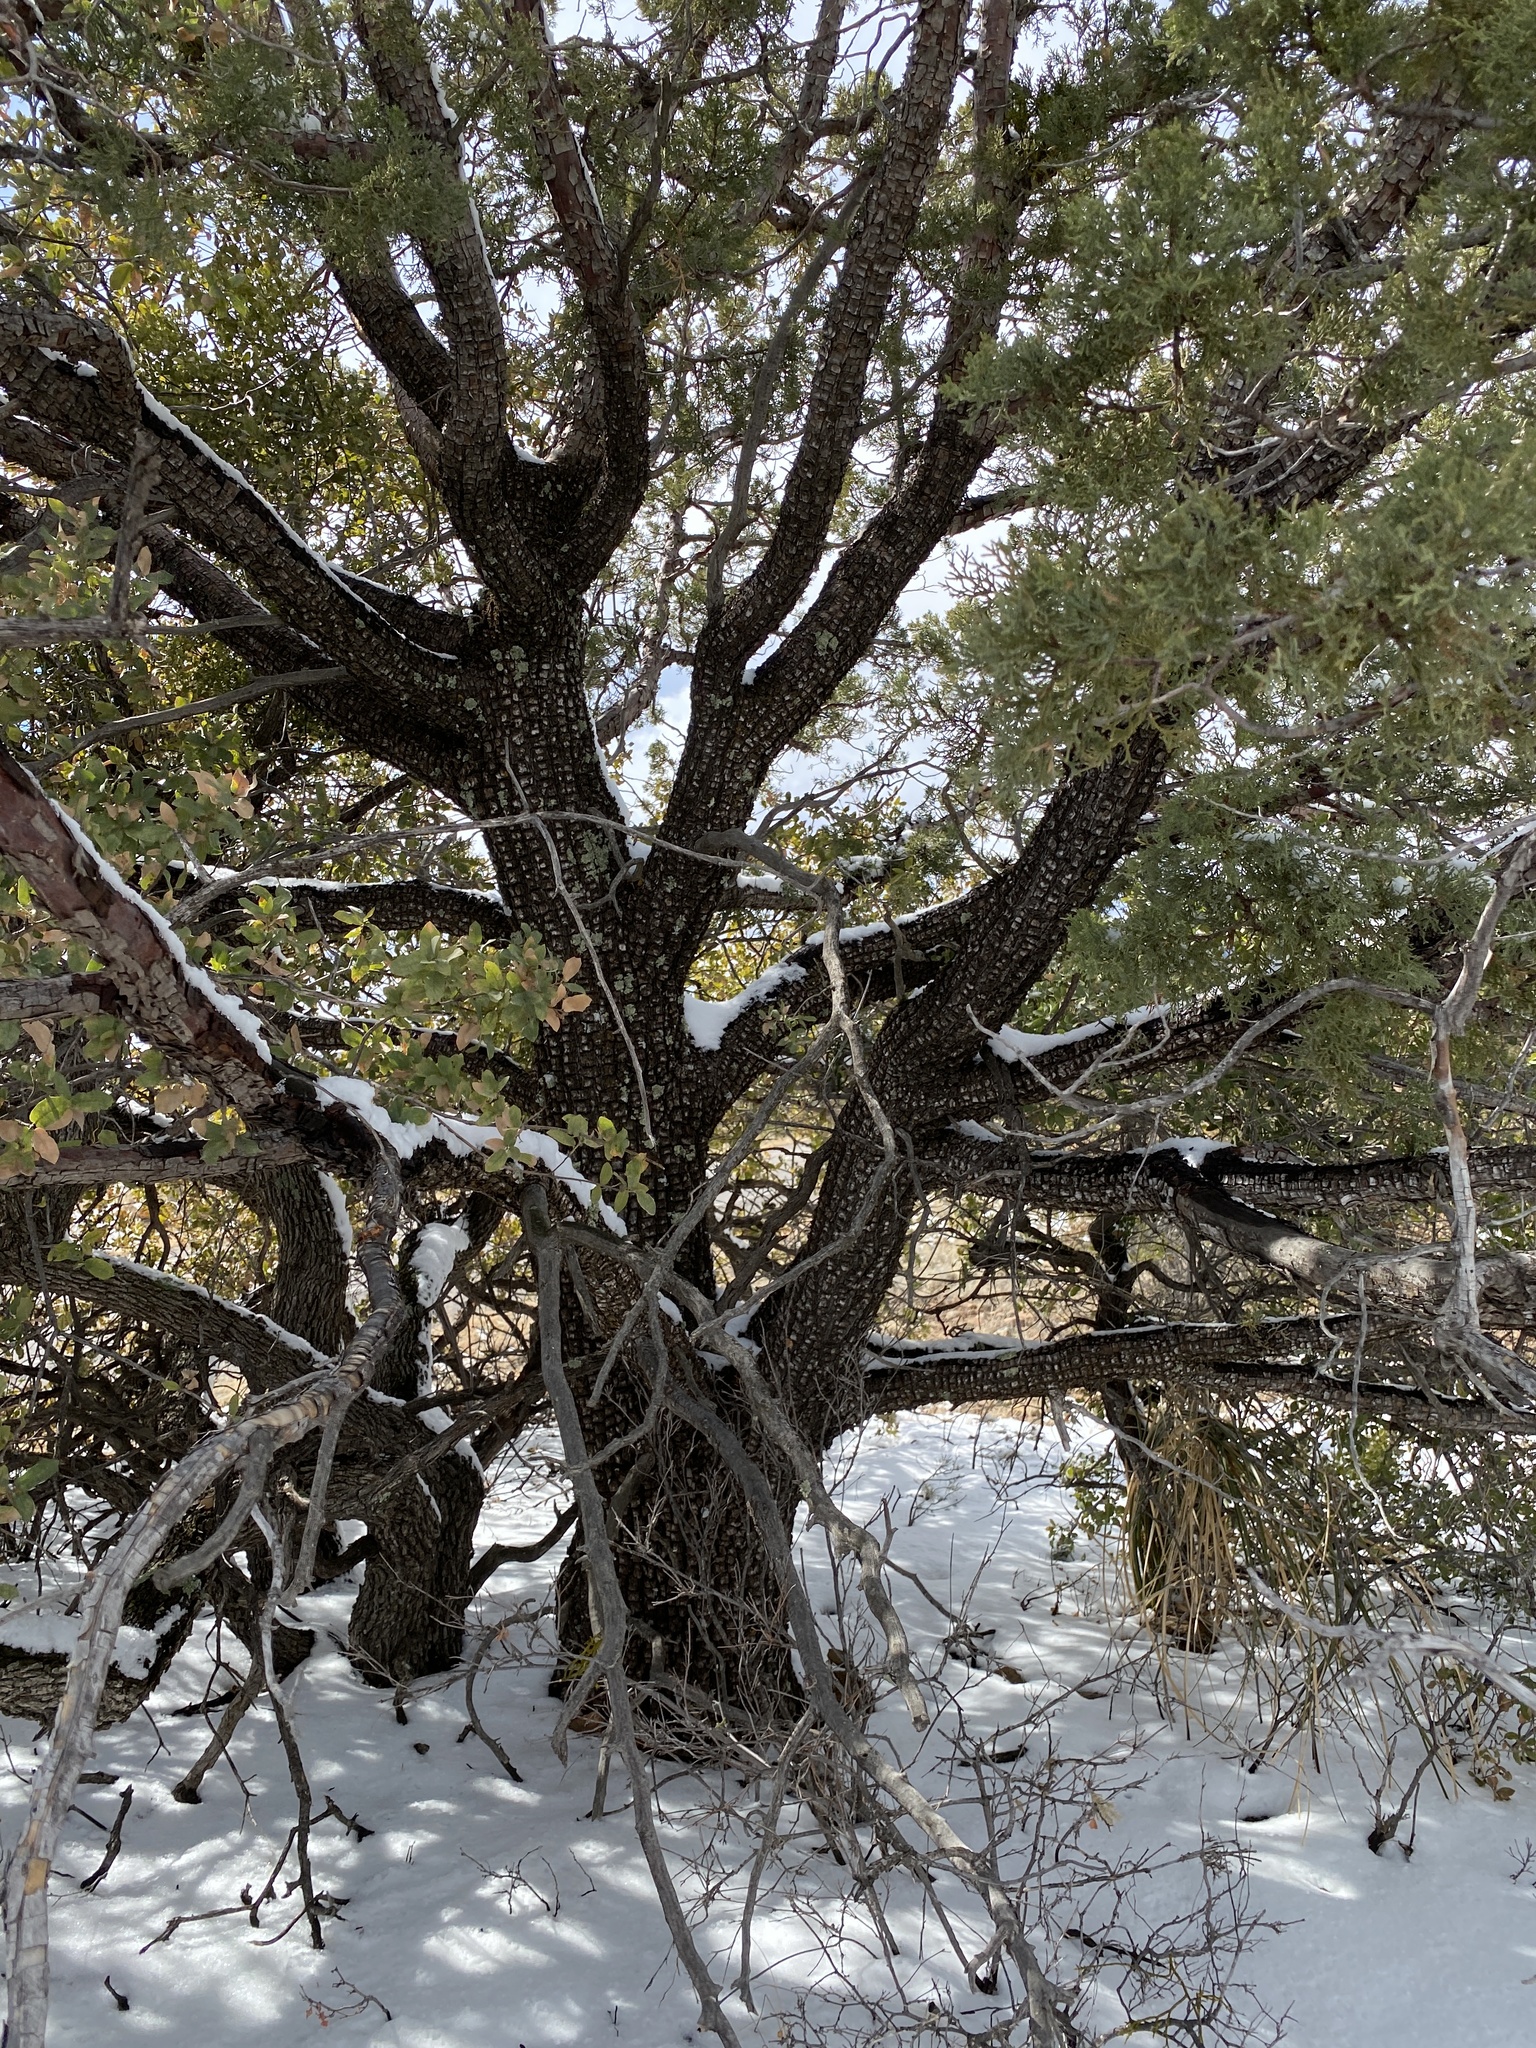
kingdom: Plantae
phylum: Tracheophyta
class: Pinopsida
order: Pinales
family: Cupressaceae
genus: Juniperus
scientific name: Juniperus deppeana
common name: Alligator juniper
